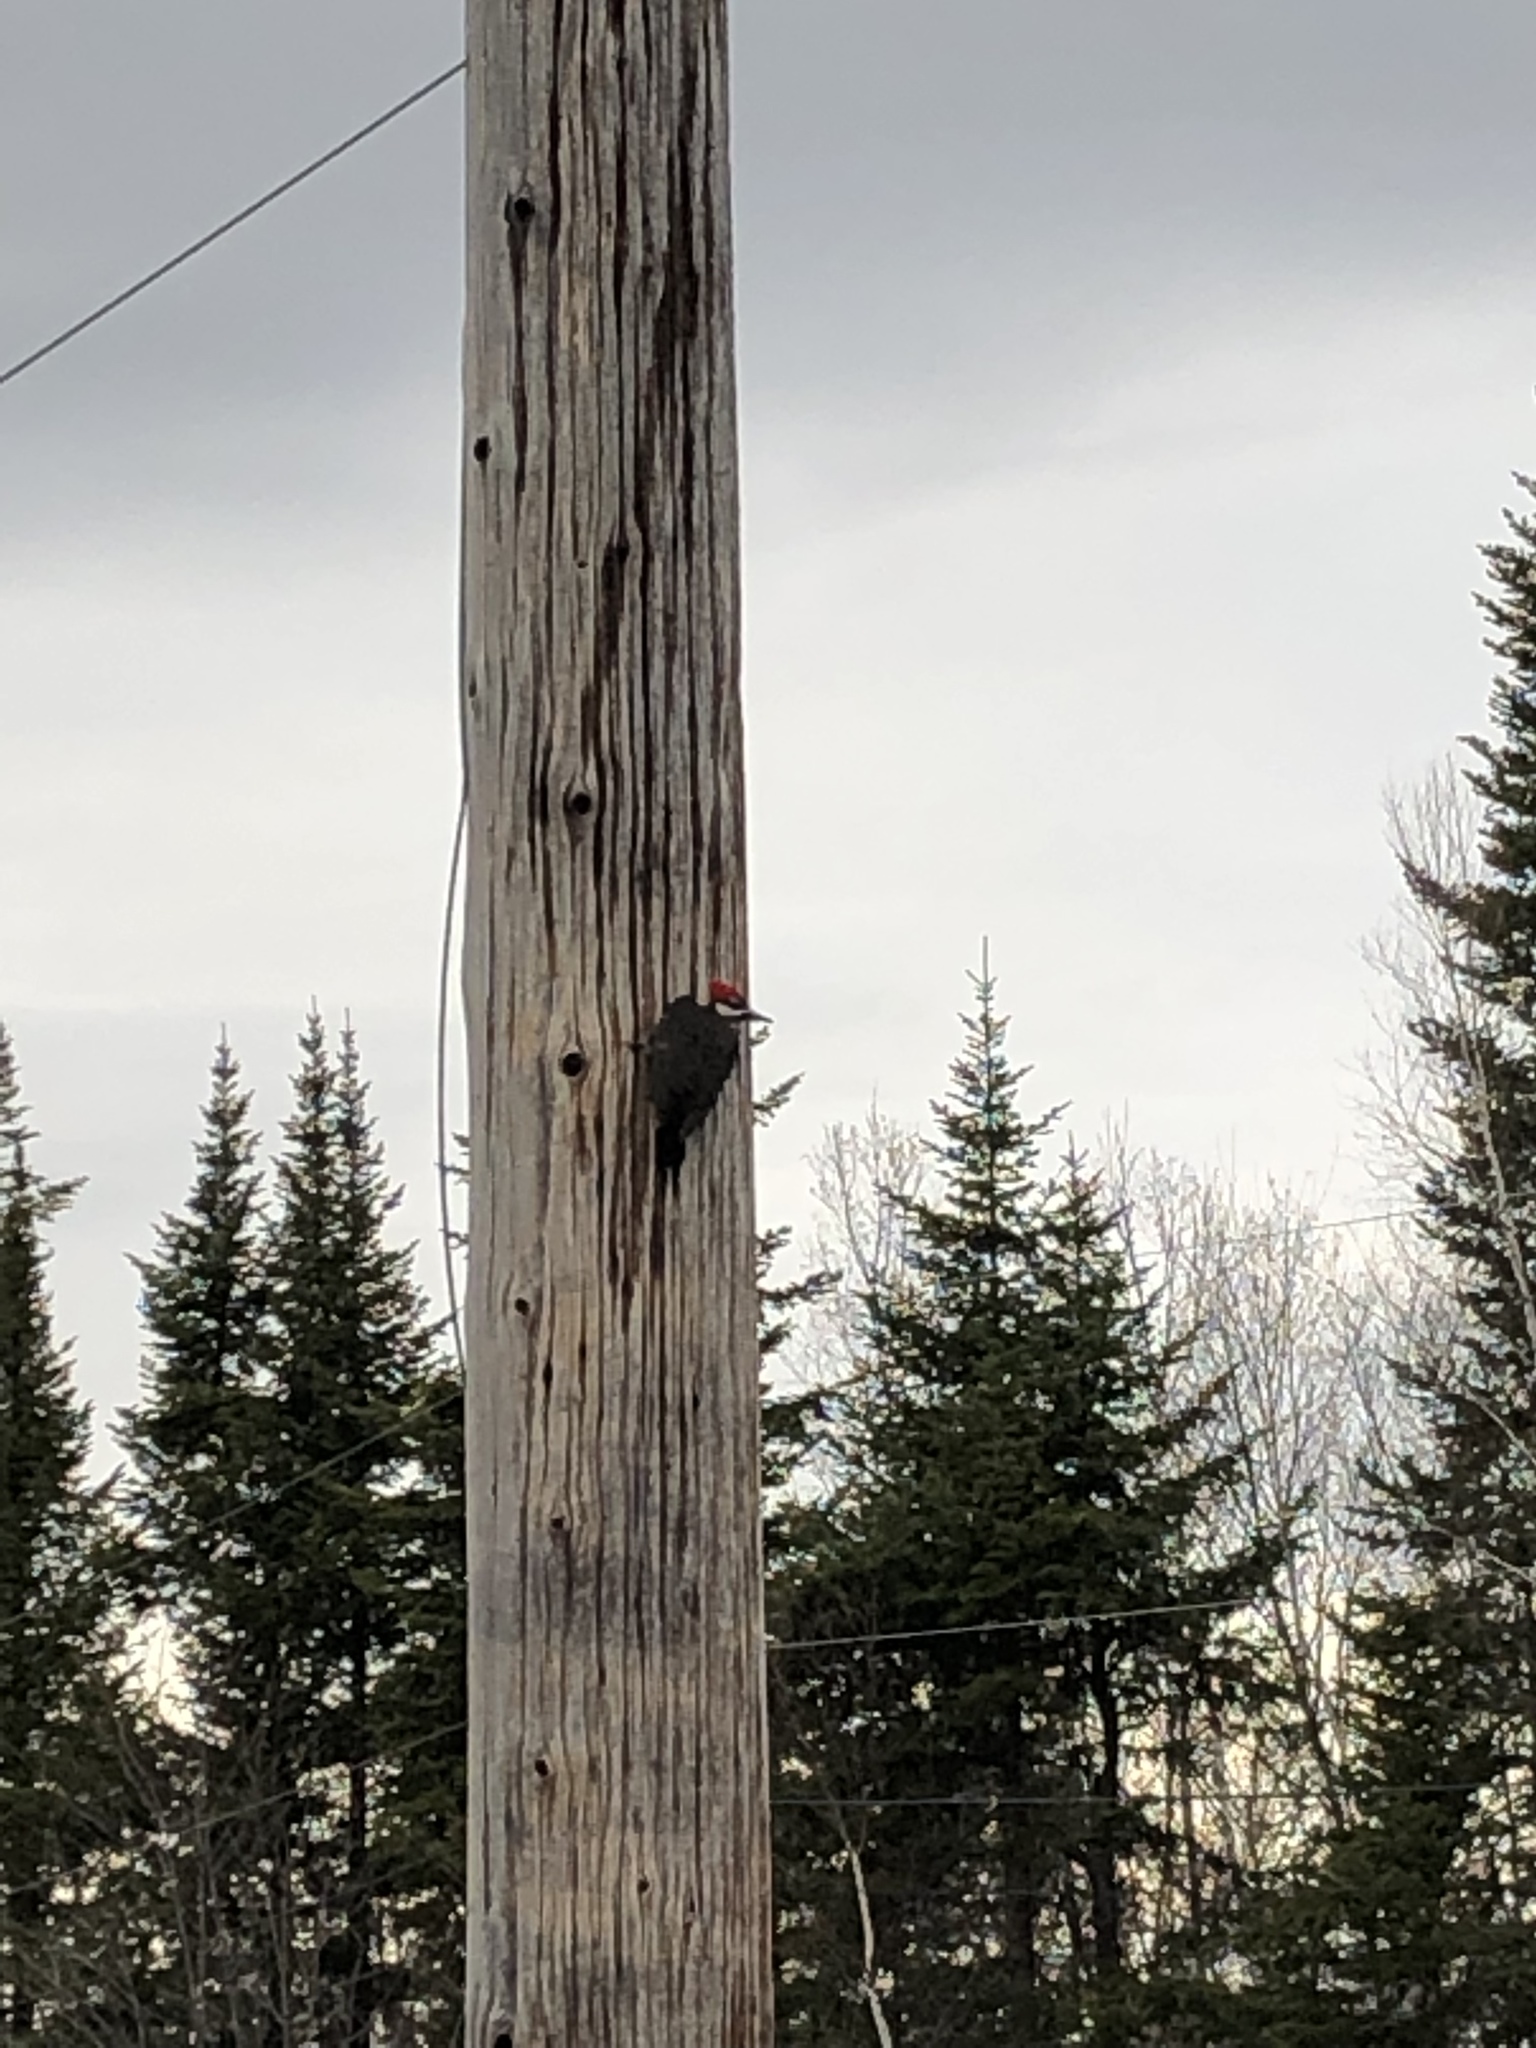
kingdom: Animalia
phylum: Chordata
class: Aves
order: Piciformes
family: Picidae
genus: Dryocopus
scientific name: Dryocopus pileatus
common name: Pileated woodpecker
